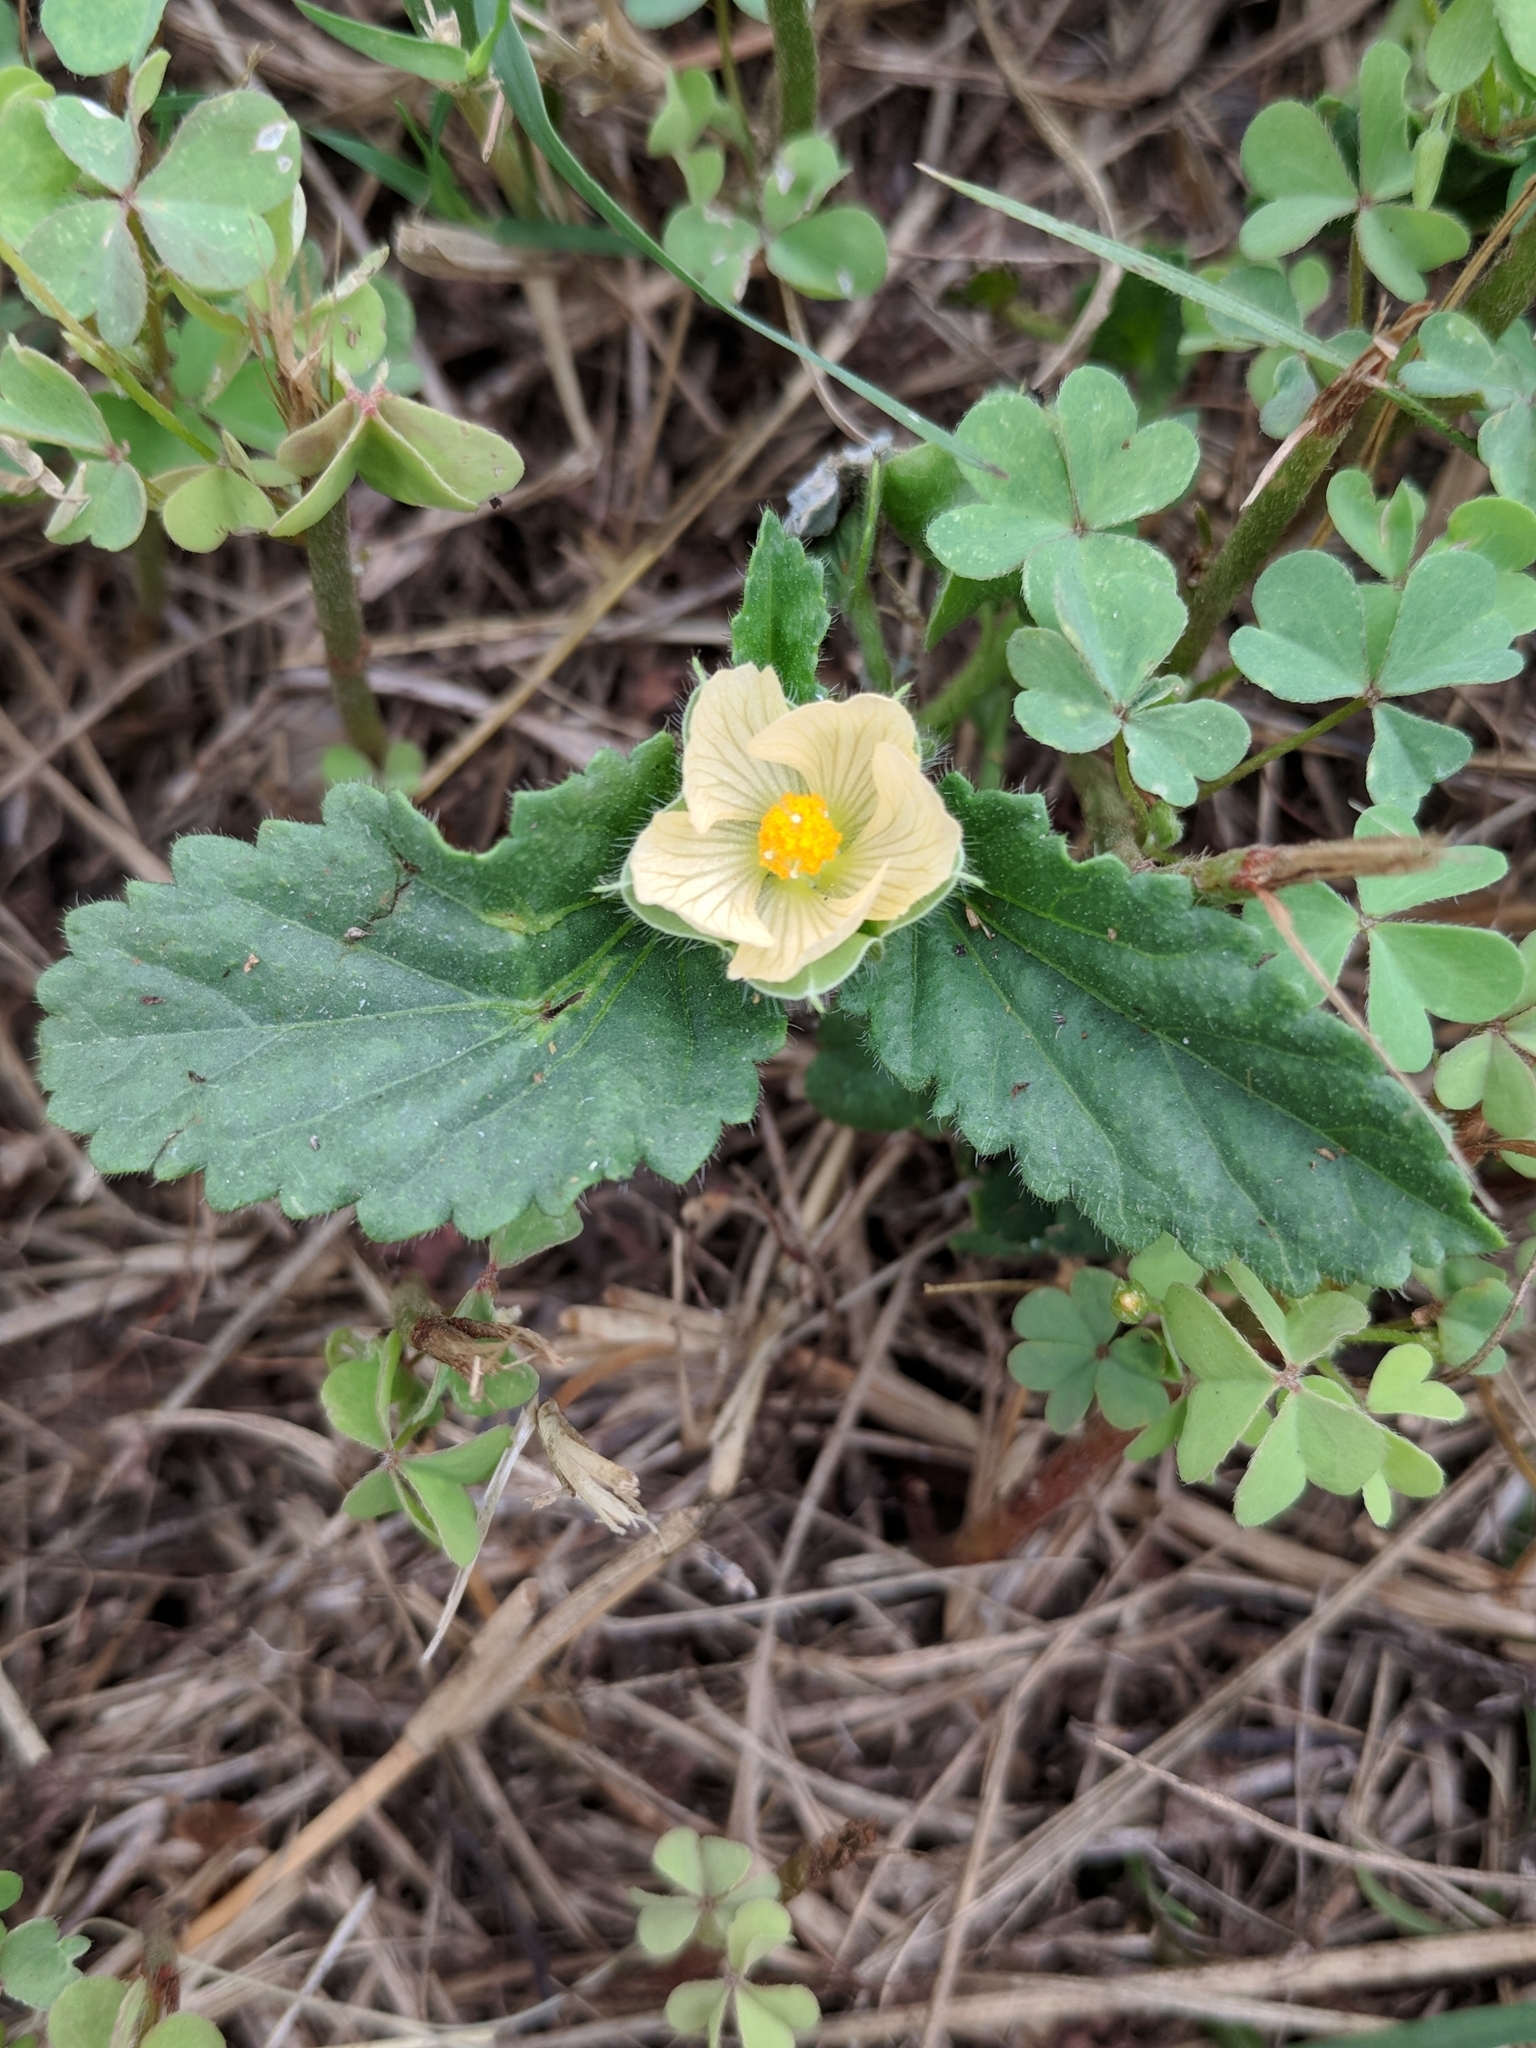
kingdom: Plantae
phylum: Tracheophyta
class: Magnoliopsida
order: Malvales
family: Malvaceae
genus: Rhynchosida
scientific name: Rhynchosida physocalyx
